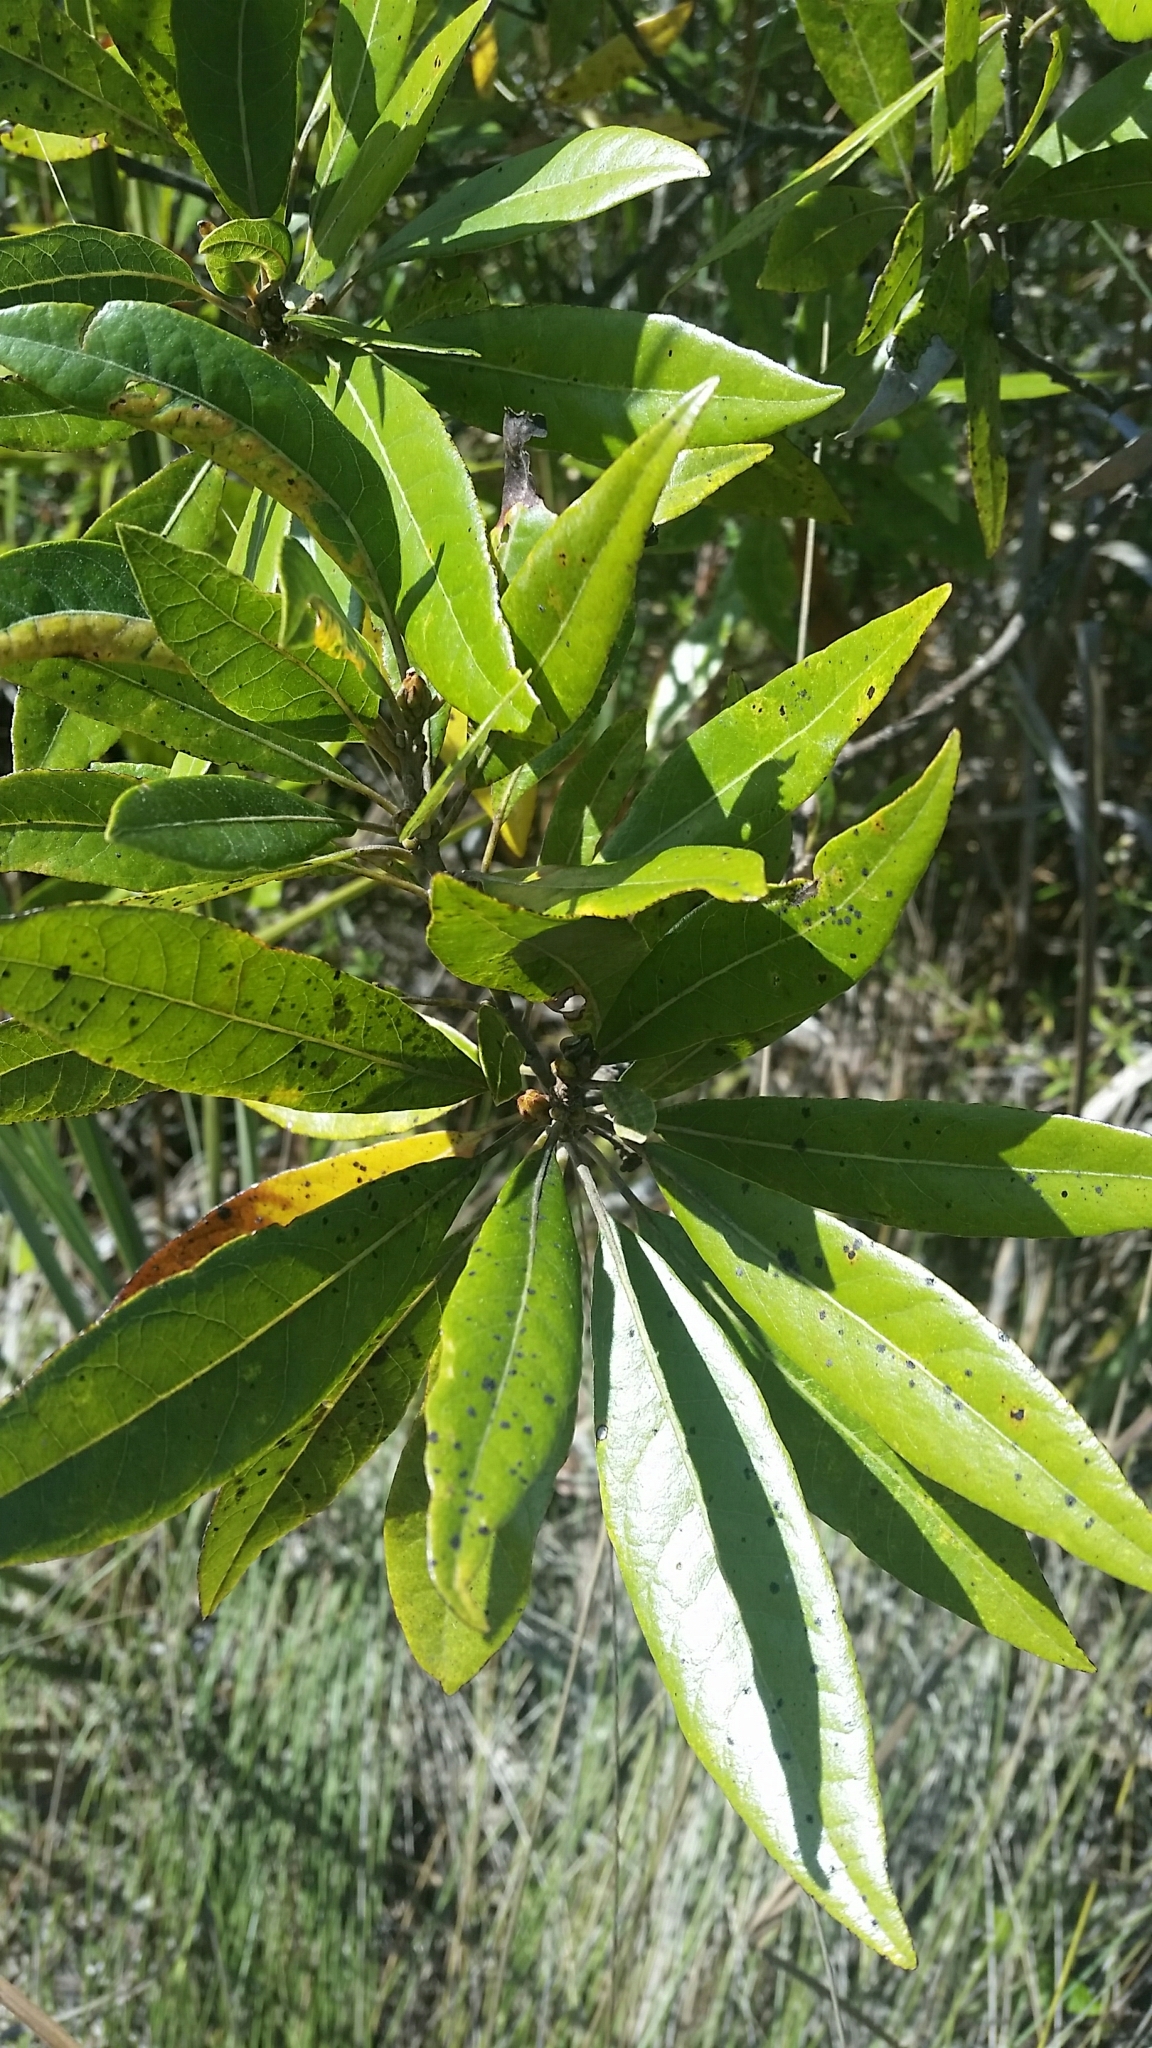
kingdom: Plantae
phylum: Tracheophyta
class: Magnoliopsida
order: Laurales
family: Lauraceae
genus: Persea
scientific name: Persea palustris
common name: Swampbay
